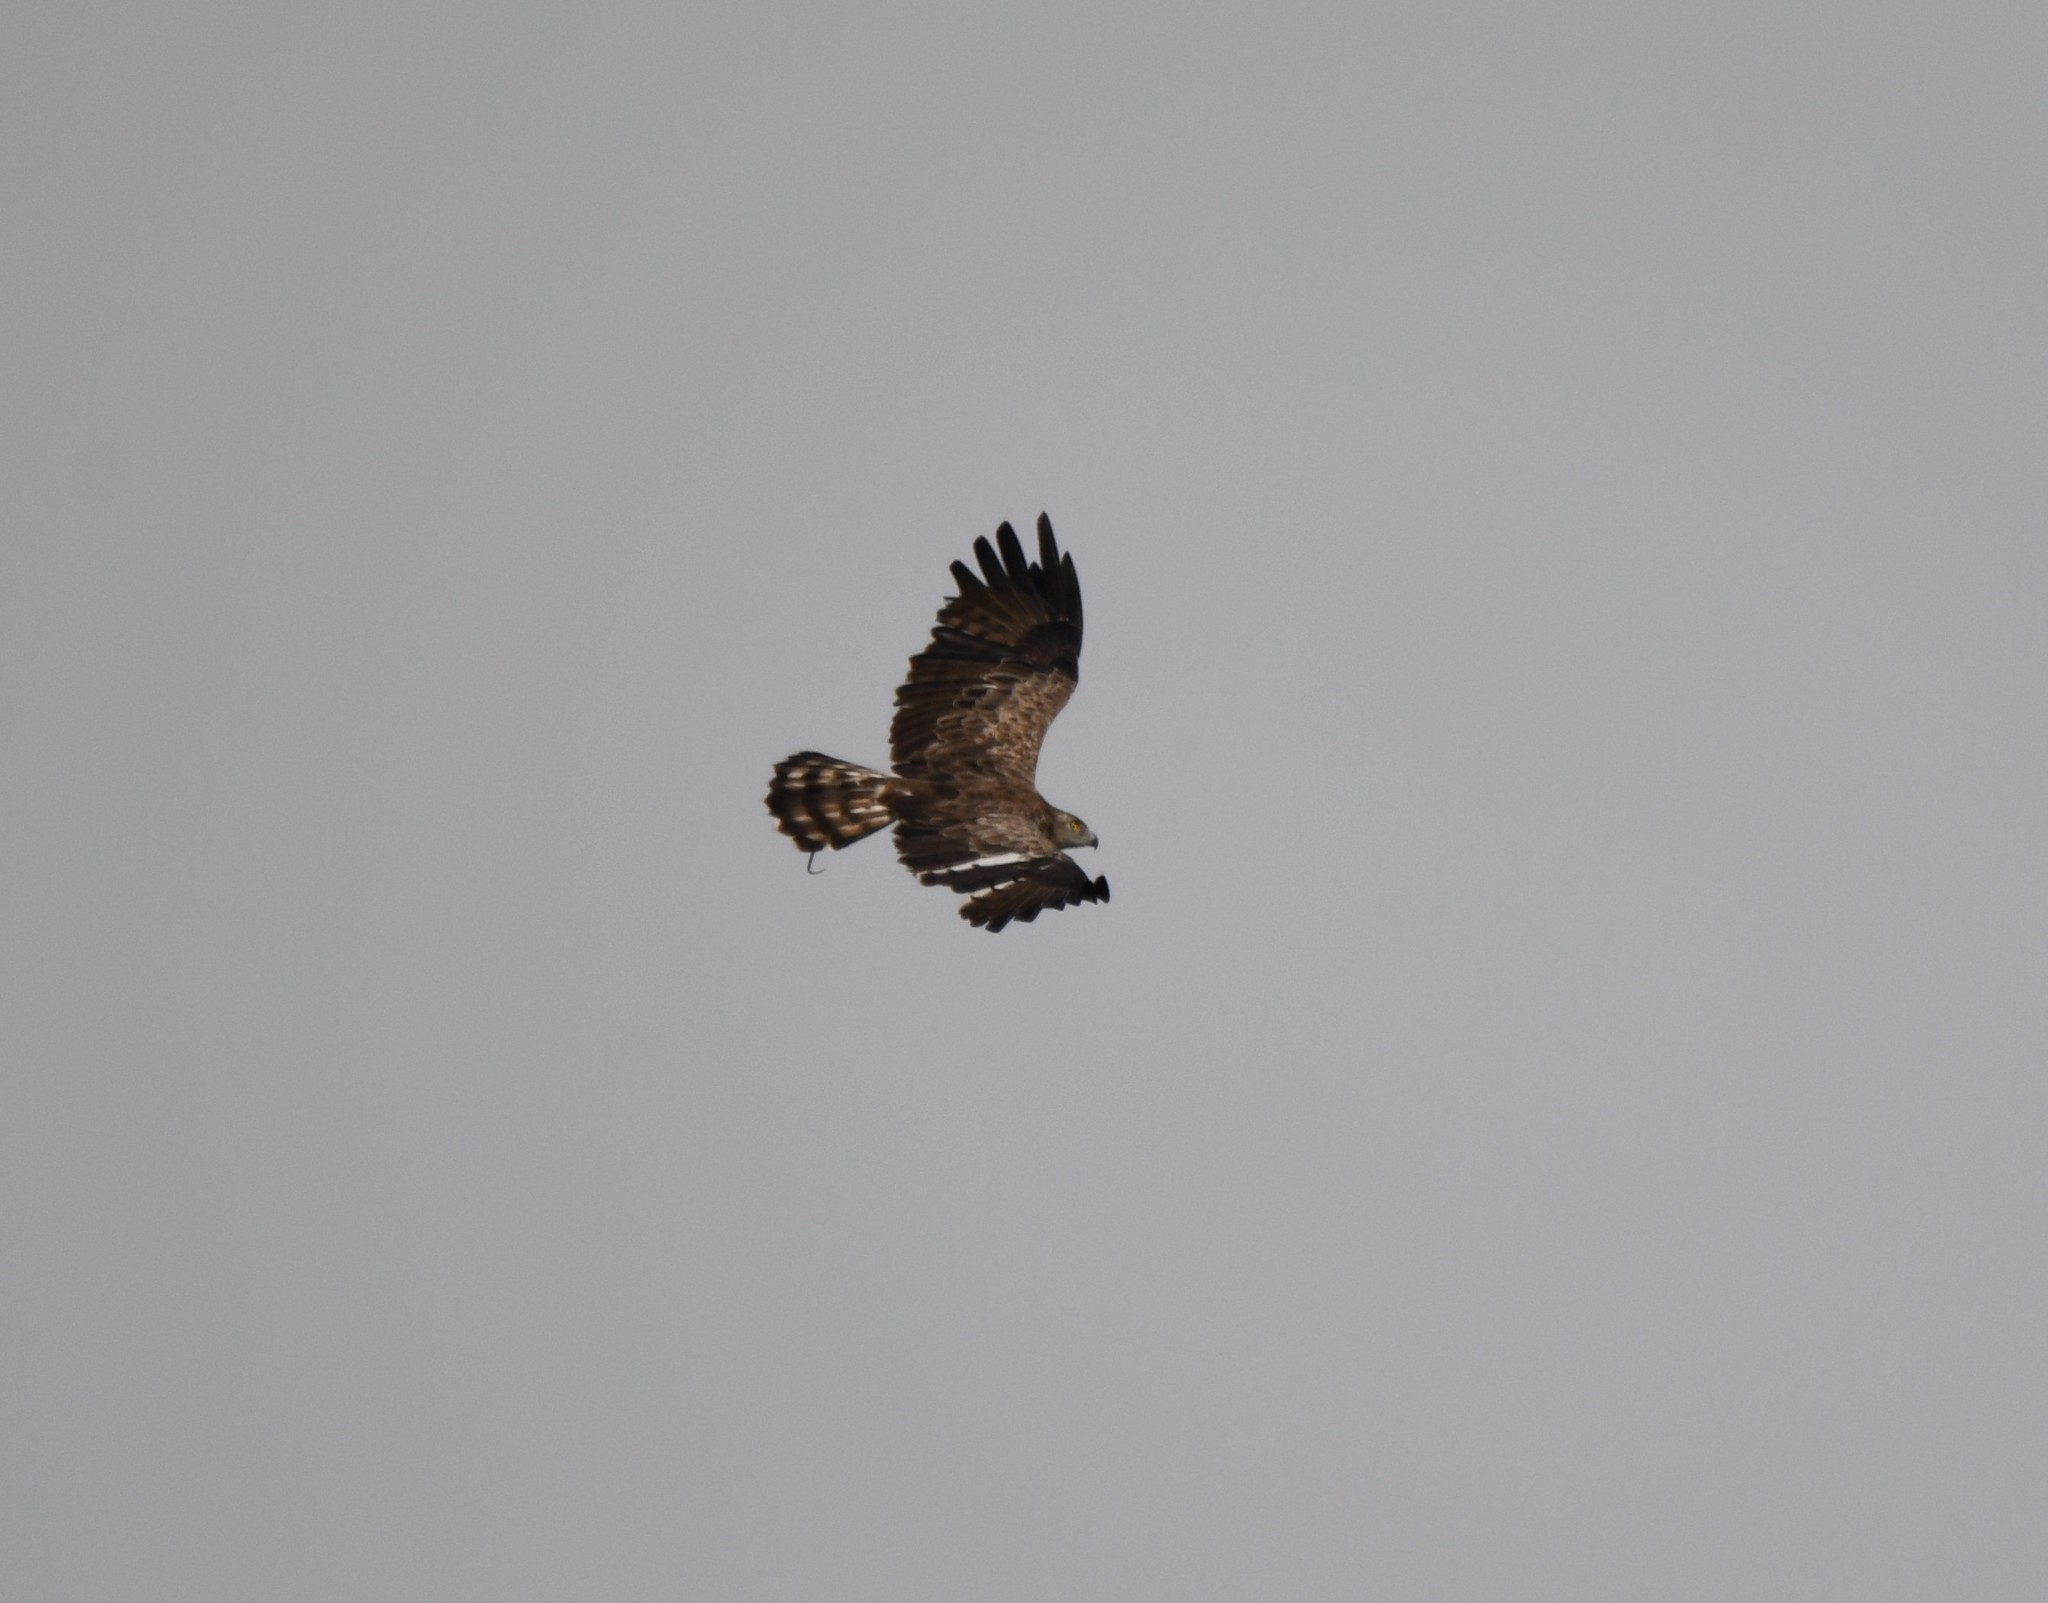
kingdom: Animalia
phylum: Chordata
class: Aves
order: Accipitriformes
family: Accipitridae
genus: Circaetus
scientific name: Circaetus gallicus
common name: Short-toed snake eagle
